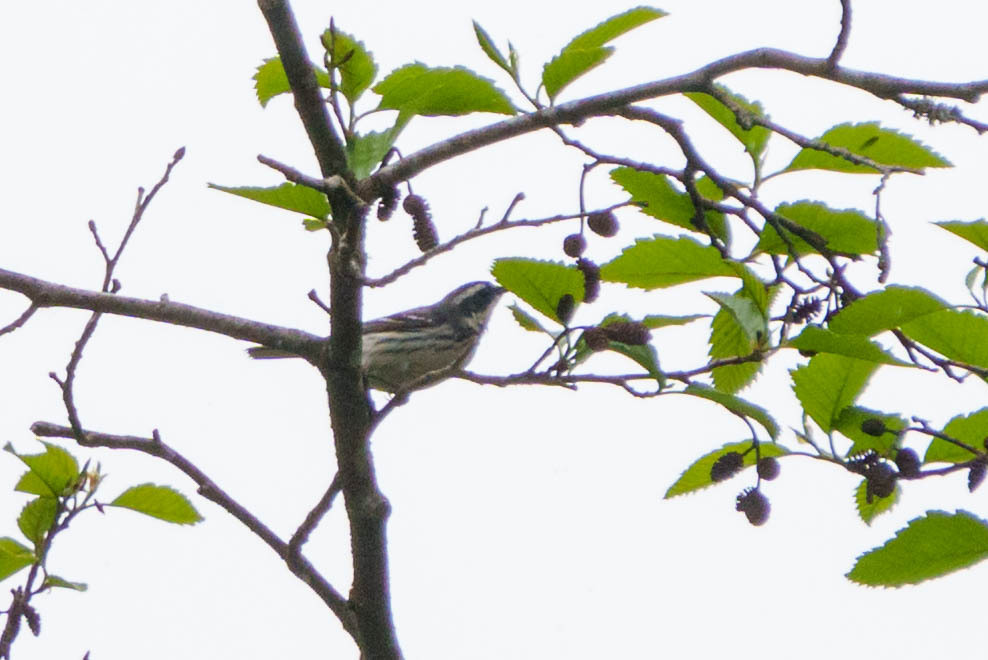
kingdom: Animalia
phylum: Chordata
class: Aves
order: Passeriformes
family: Parulidae
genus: Setophaga
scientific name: Setophaga nigrescens
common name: Black-throated gray warbler
